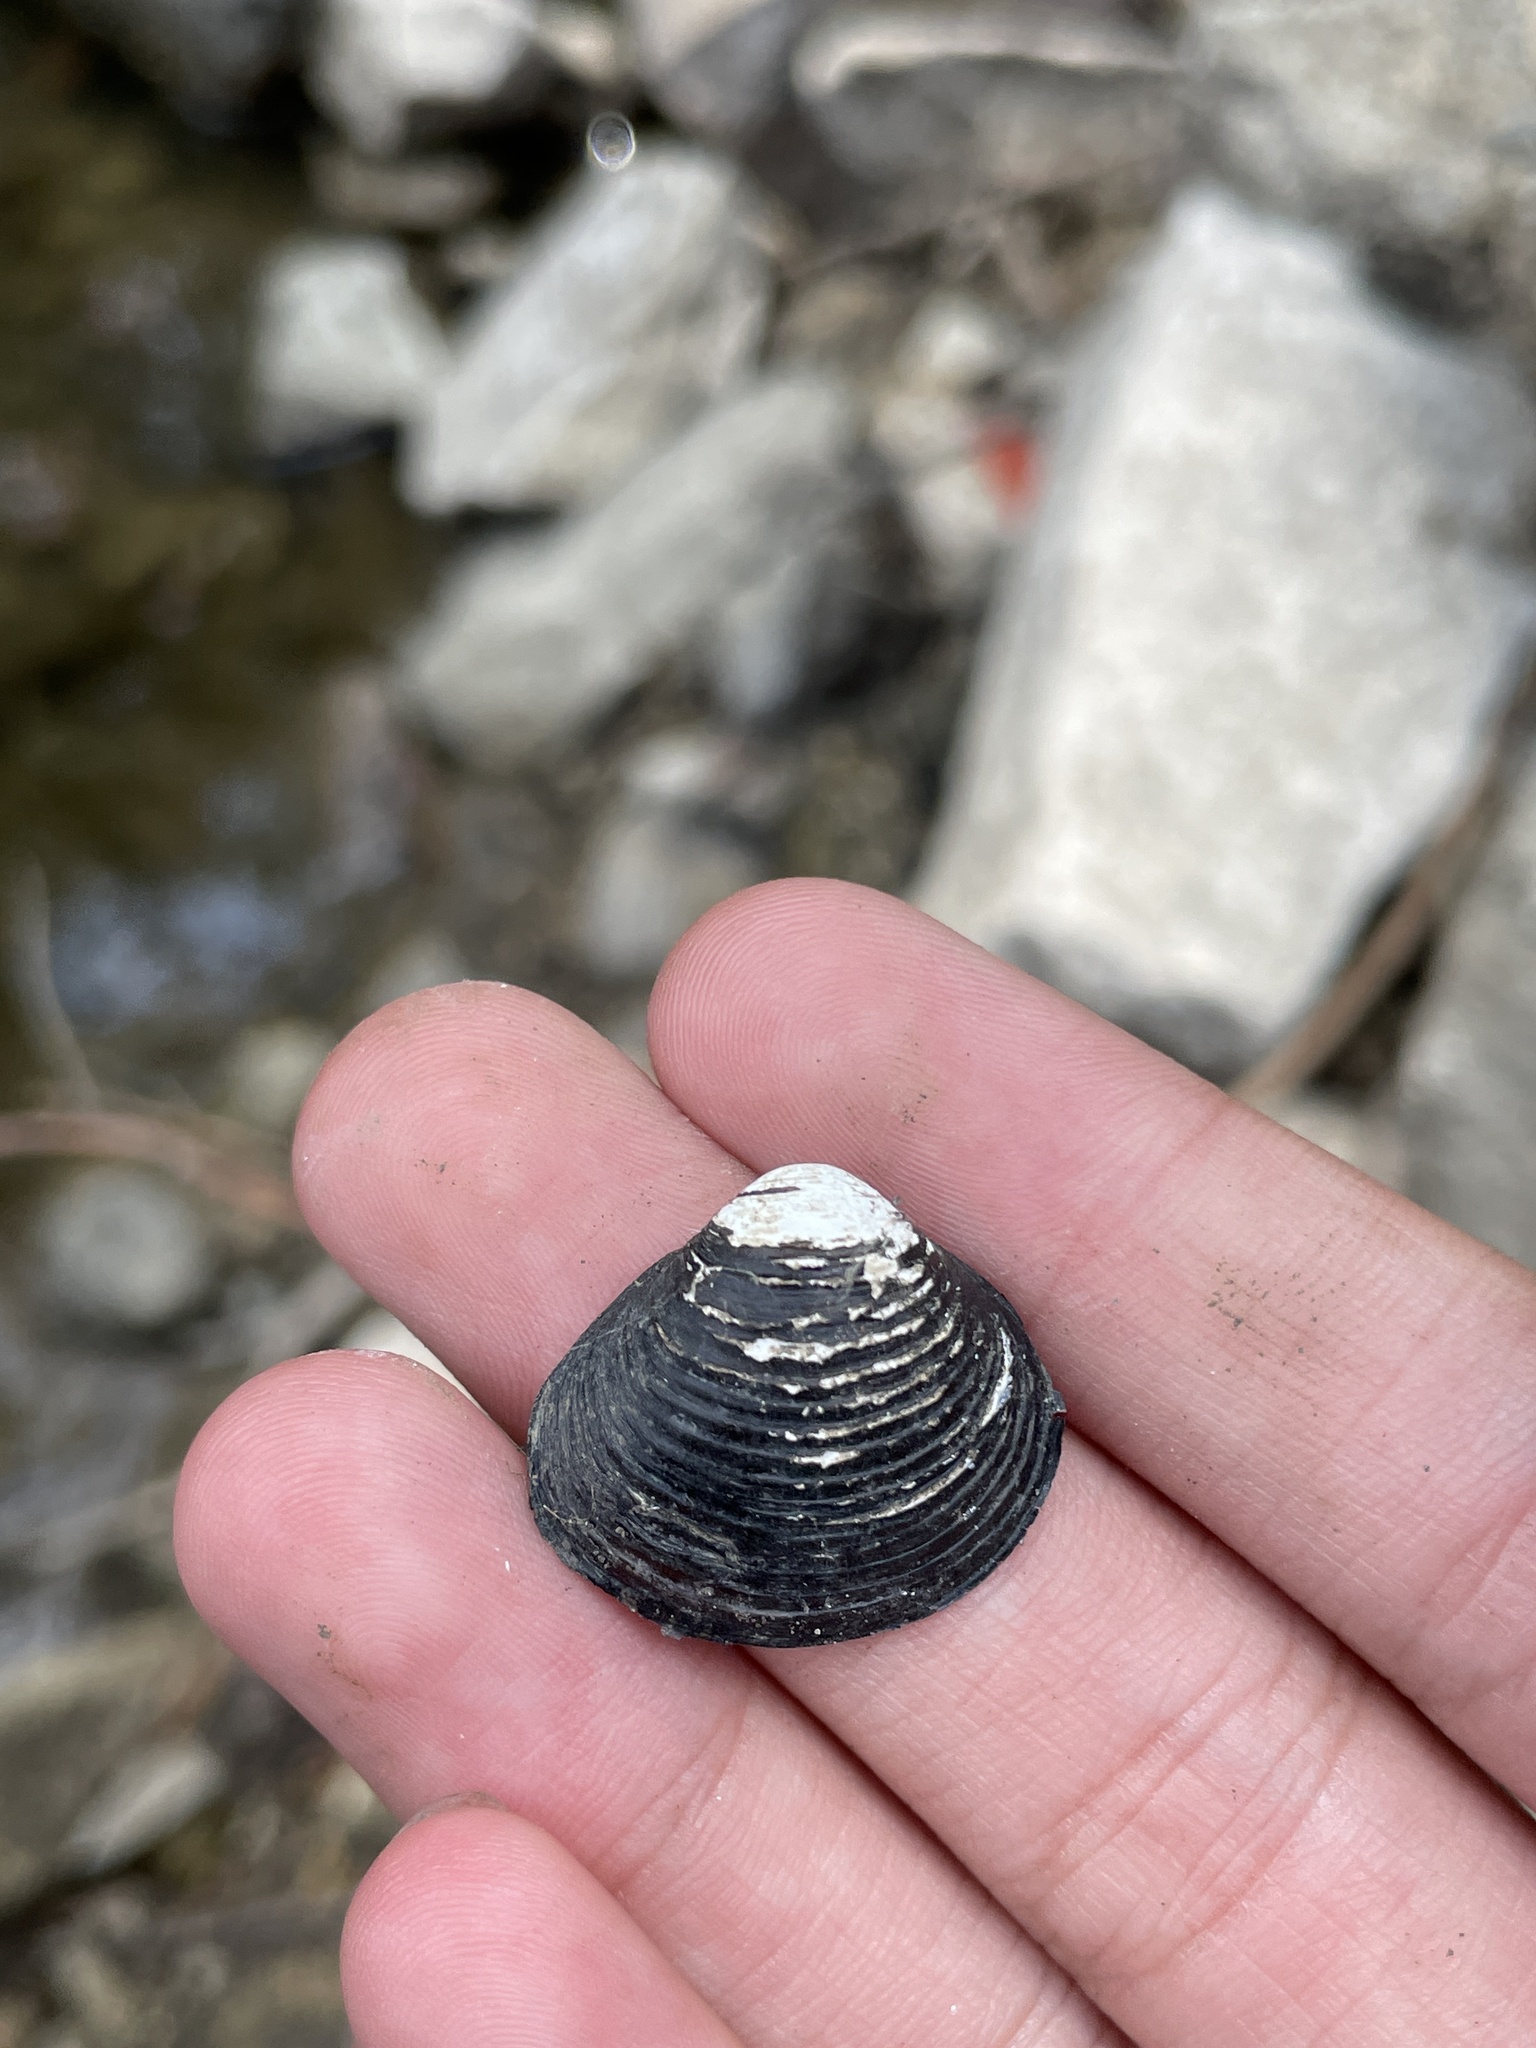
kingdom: Animalia
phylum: Mollusca
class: Bivalvia
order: Venerida
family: Cyrenidae
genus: Corbicula
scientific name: Corbicula fluminea
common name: Asian clam
